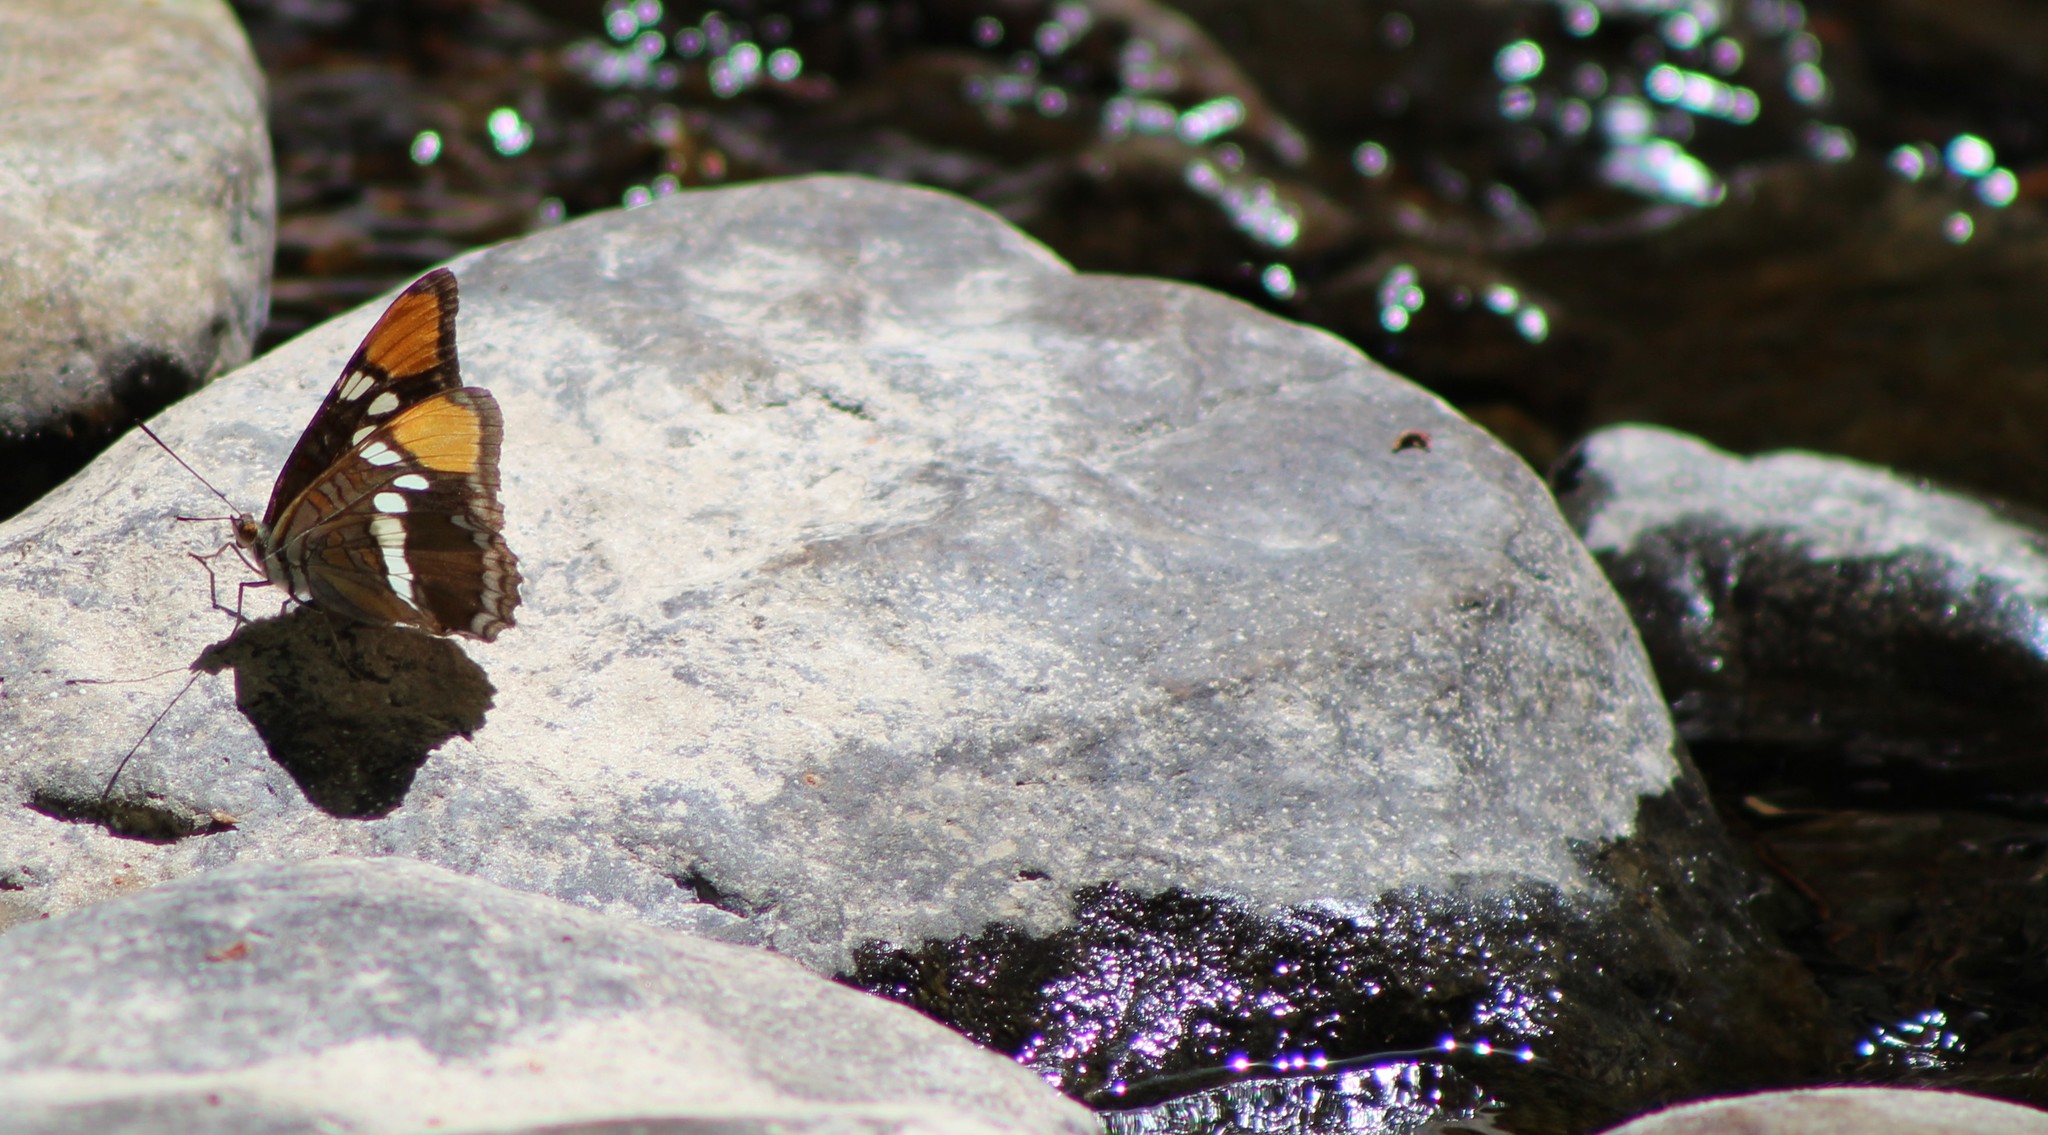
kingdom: Animalia
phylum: Arthropoda
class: Insecta
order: Lepidoptera
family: Nymphalidae
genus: Limenitis
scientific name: Limenitis bredowii
